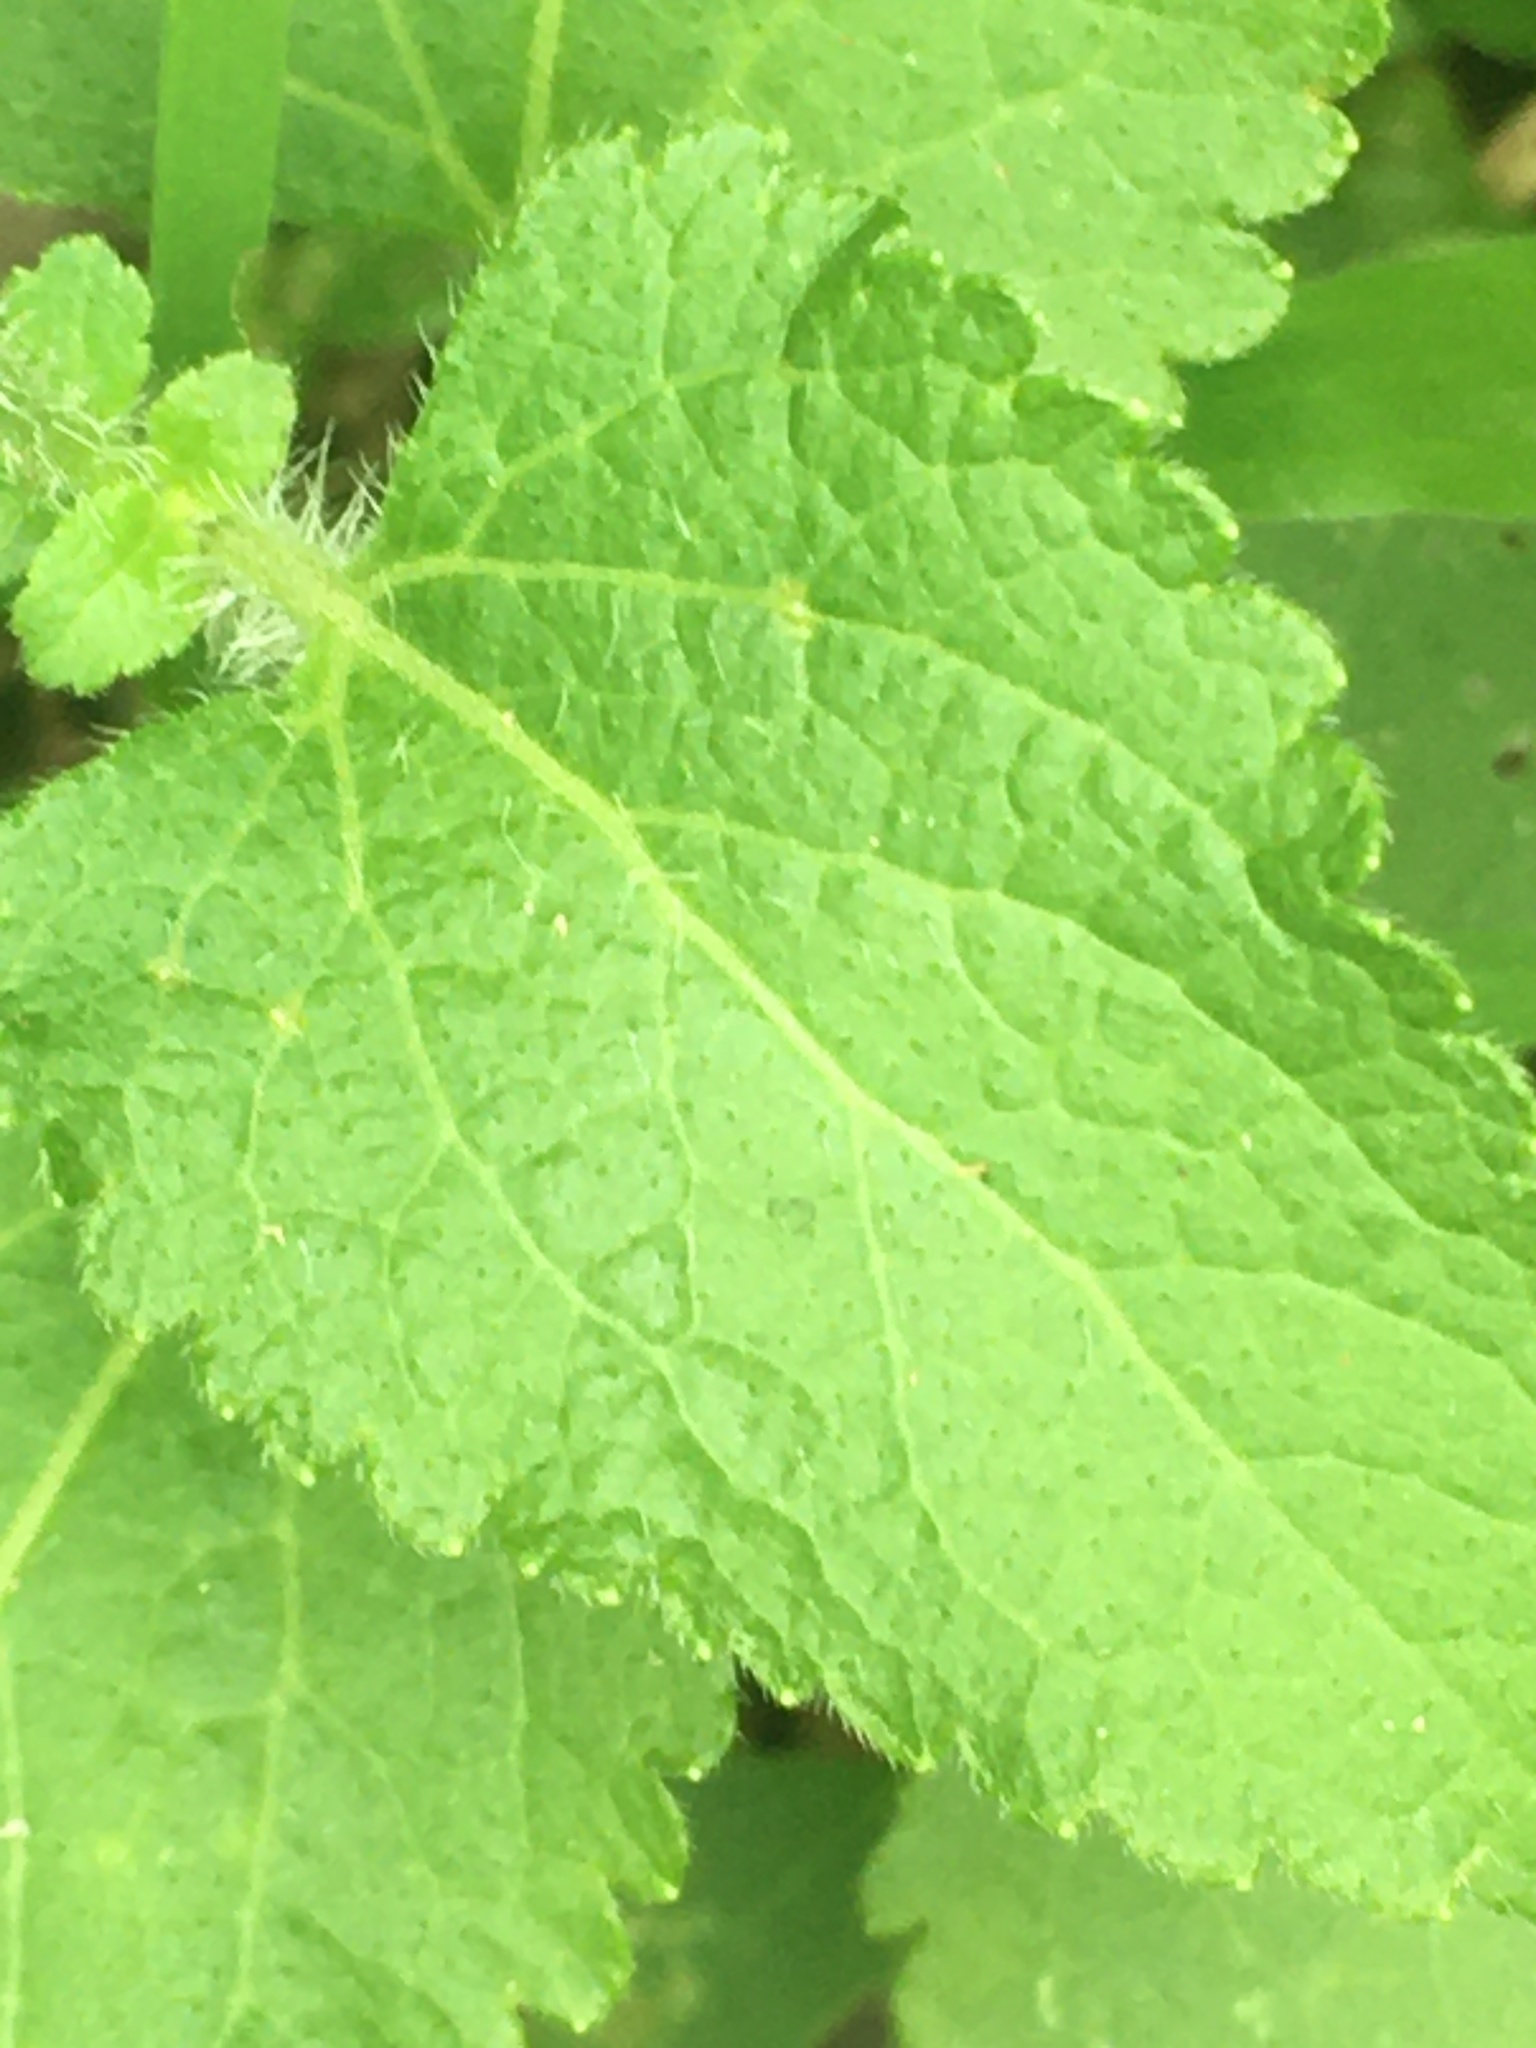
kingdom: Plantae
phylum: Tracheophyta
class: Magnoliopsida
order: Asterales
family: Asteraceae
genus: Ageratum
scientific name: Ageratum houstonianum
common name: Bluemink
